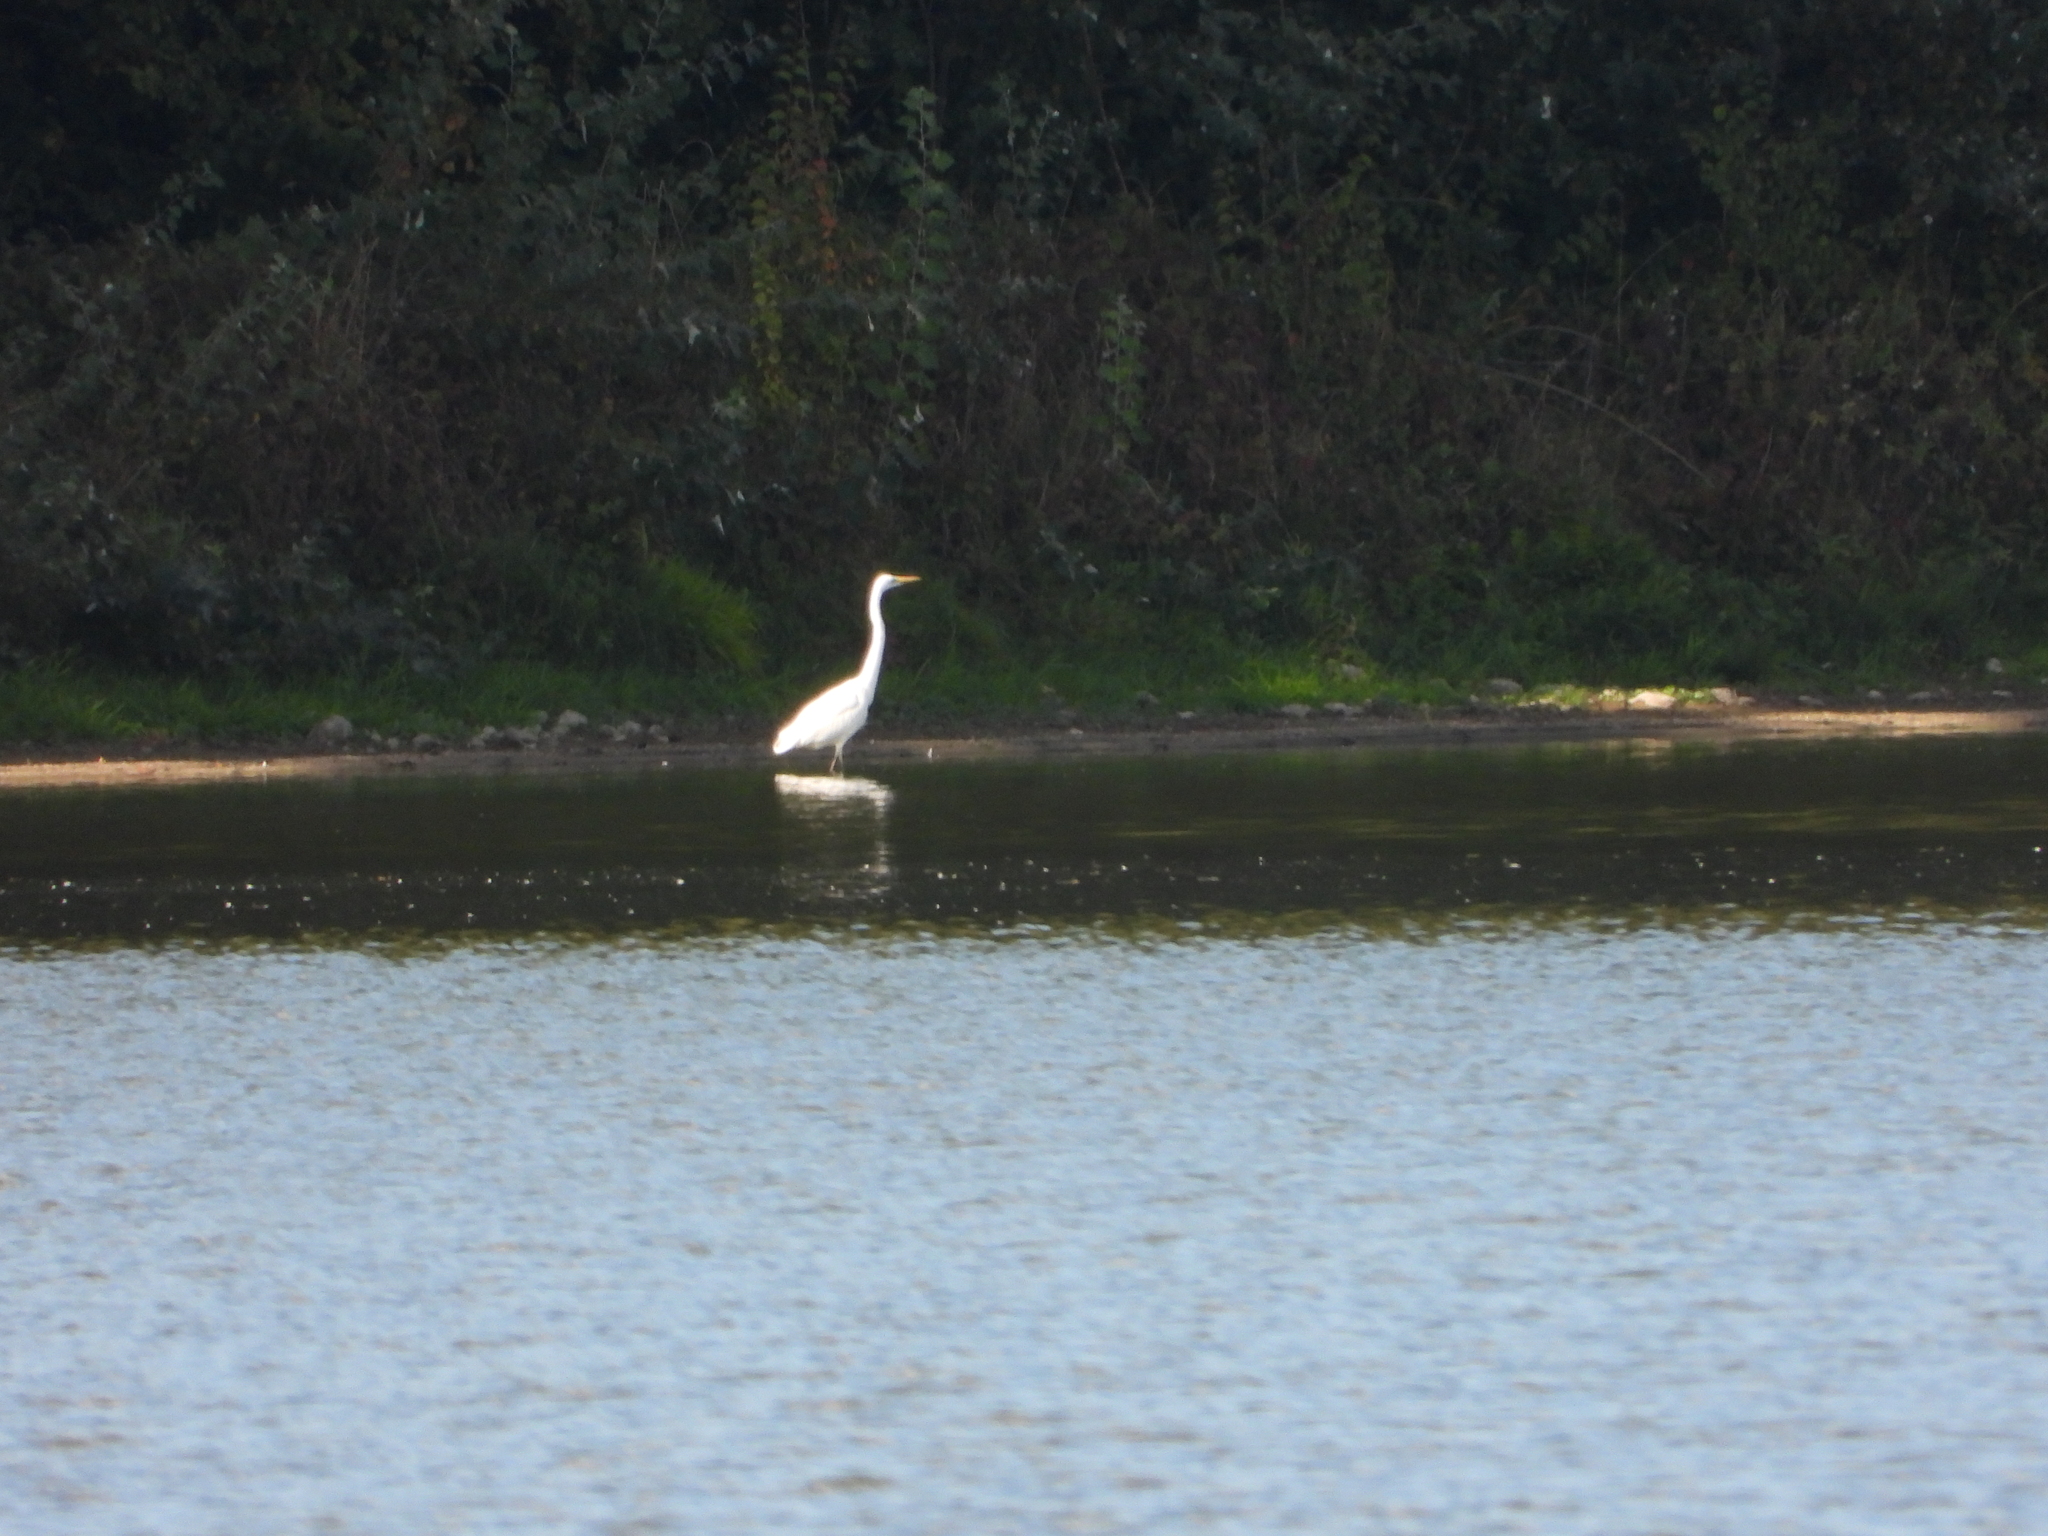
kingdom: Animalia
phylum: Chordata
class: Aves
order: Pelecaniformes
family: Ardeidae
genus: Ardea
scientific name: Ardea alba
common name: Great egret
